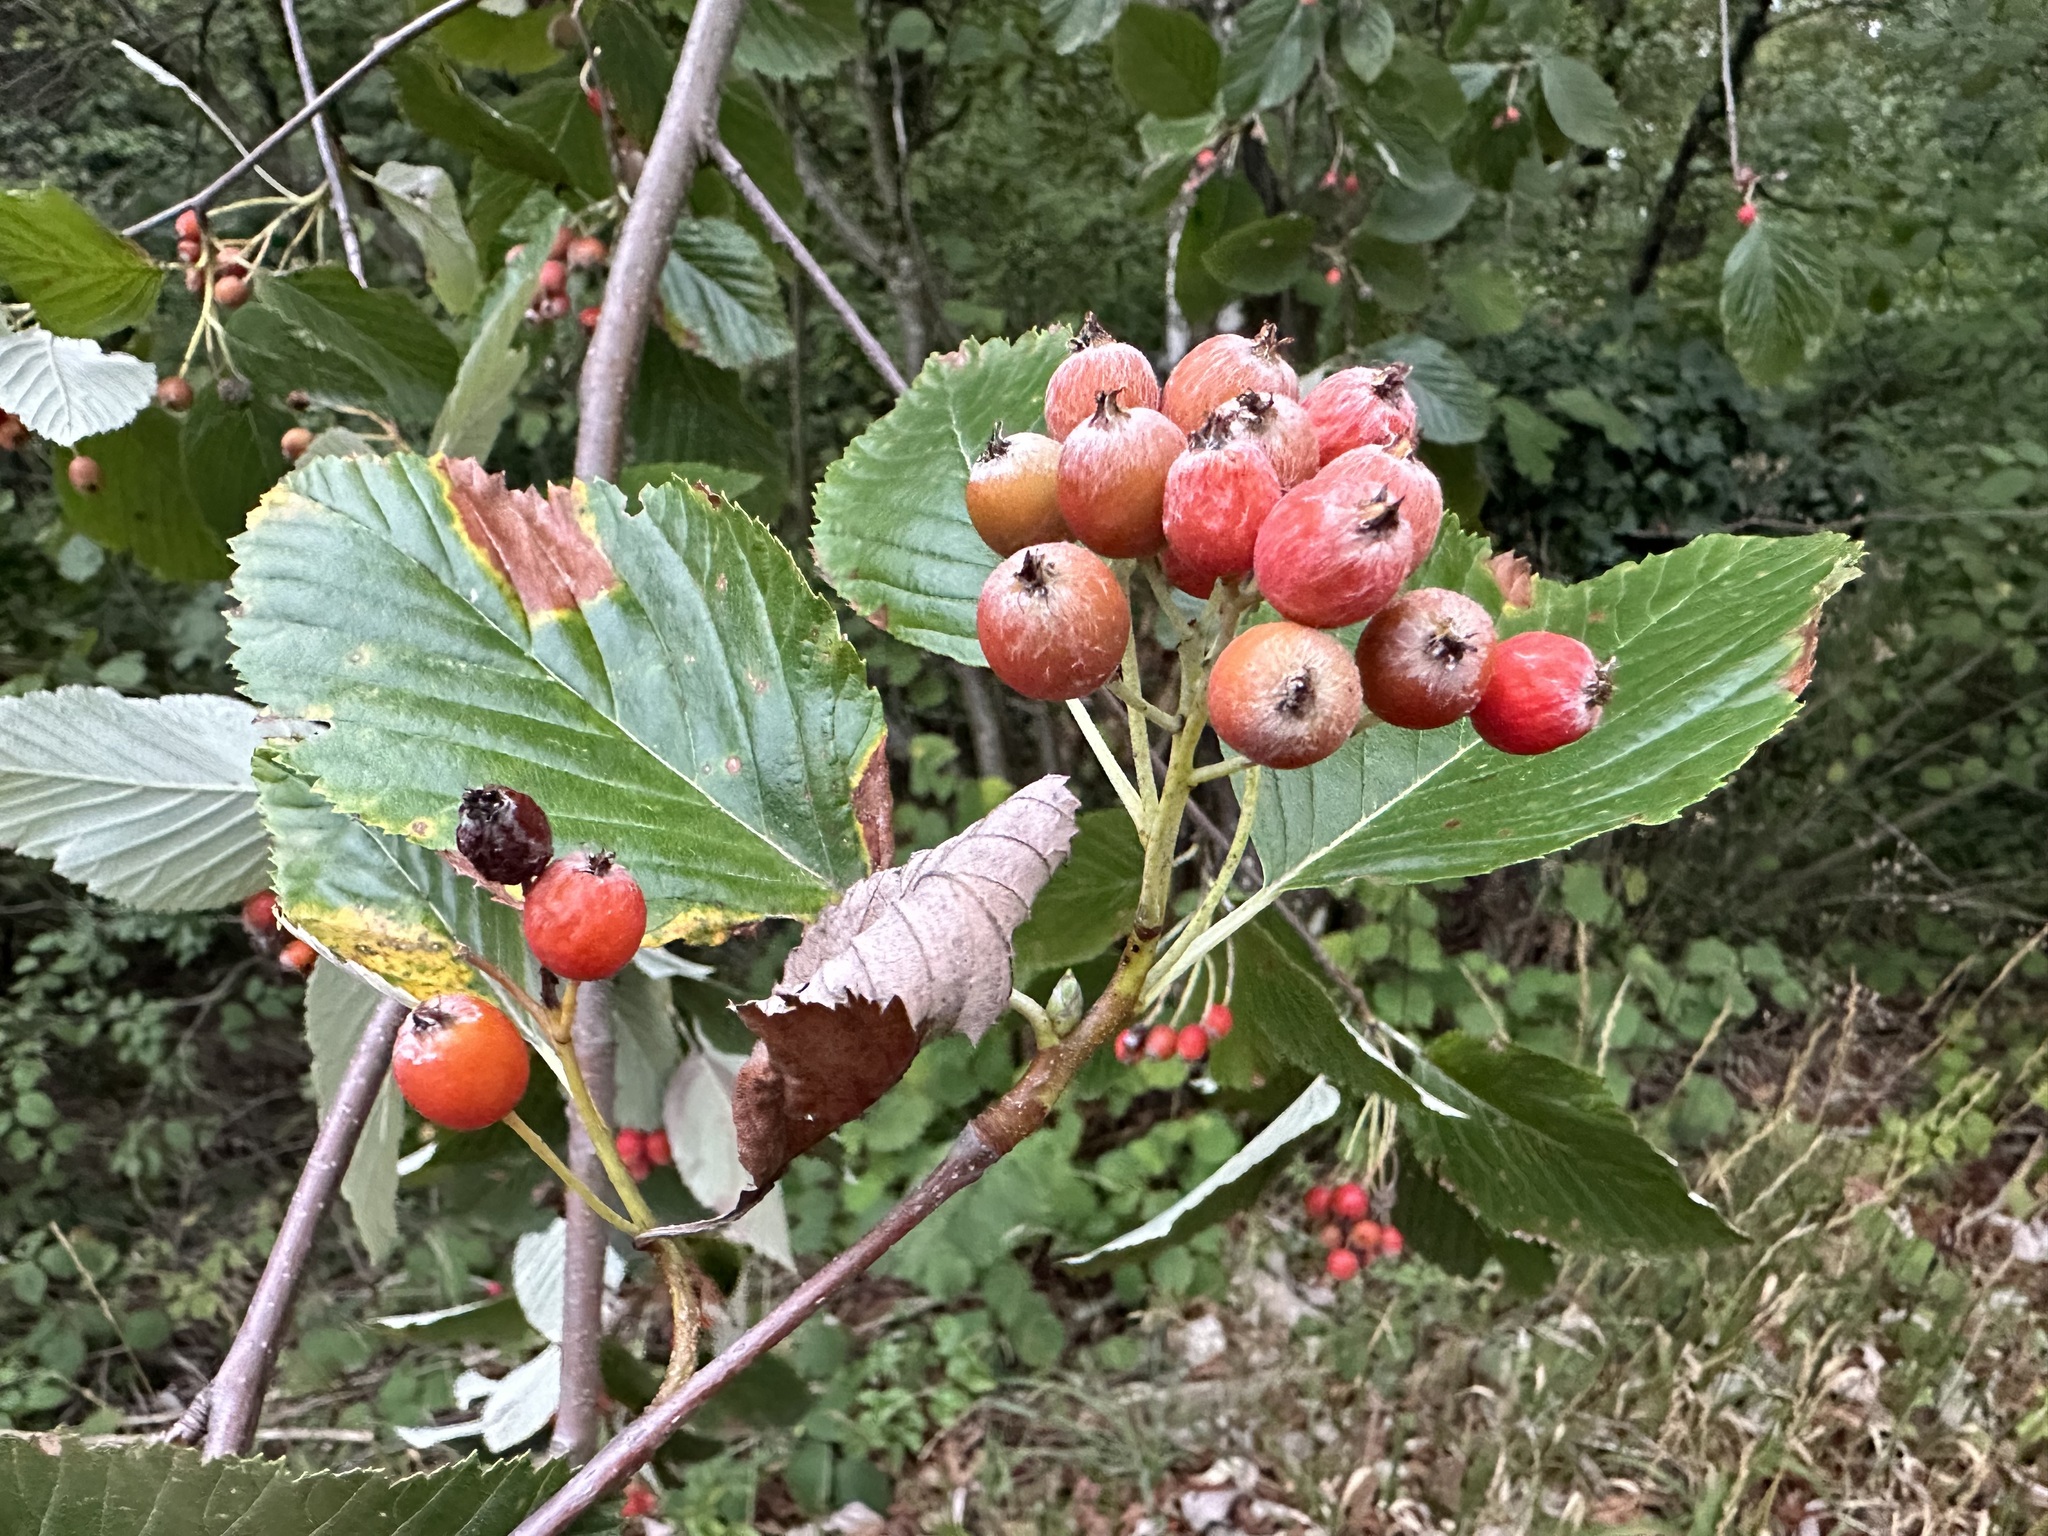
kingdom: Plantae
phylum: Tracheophyta
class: Magnoliopsida
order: Rosales
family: Rosaceae
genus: Aria
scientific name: Aria edulis
